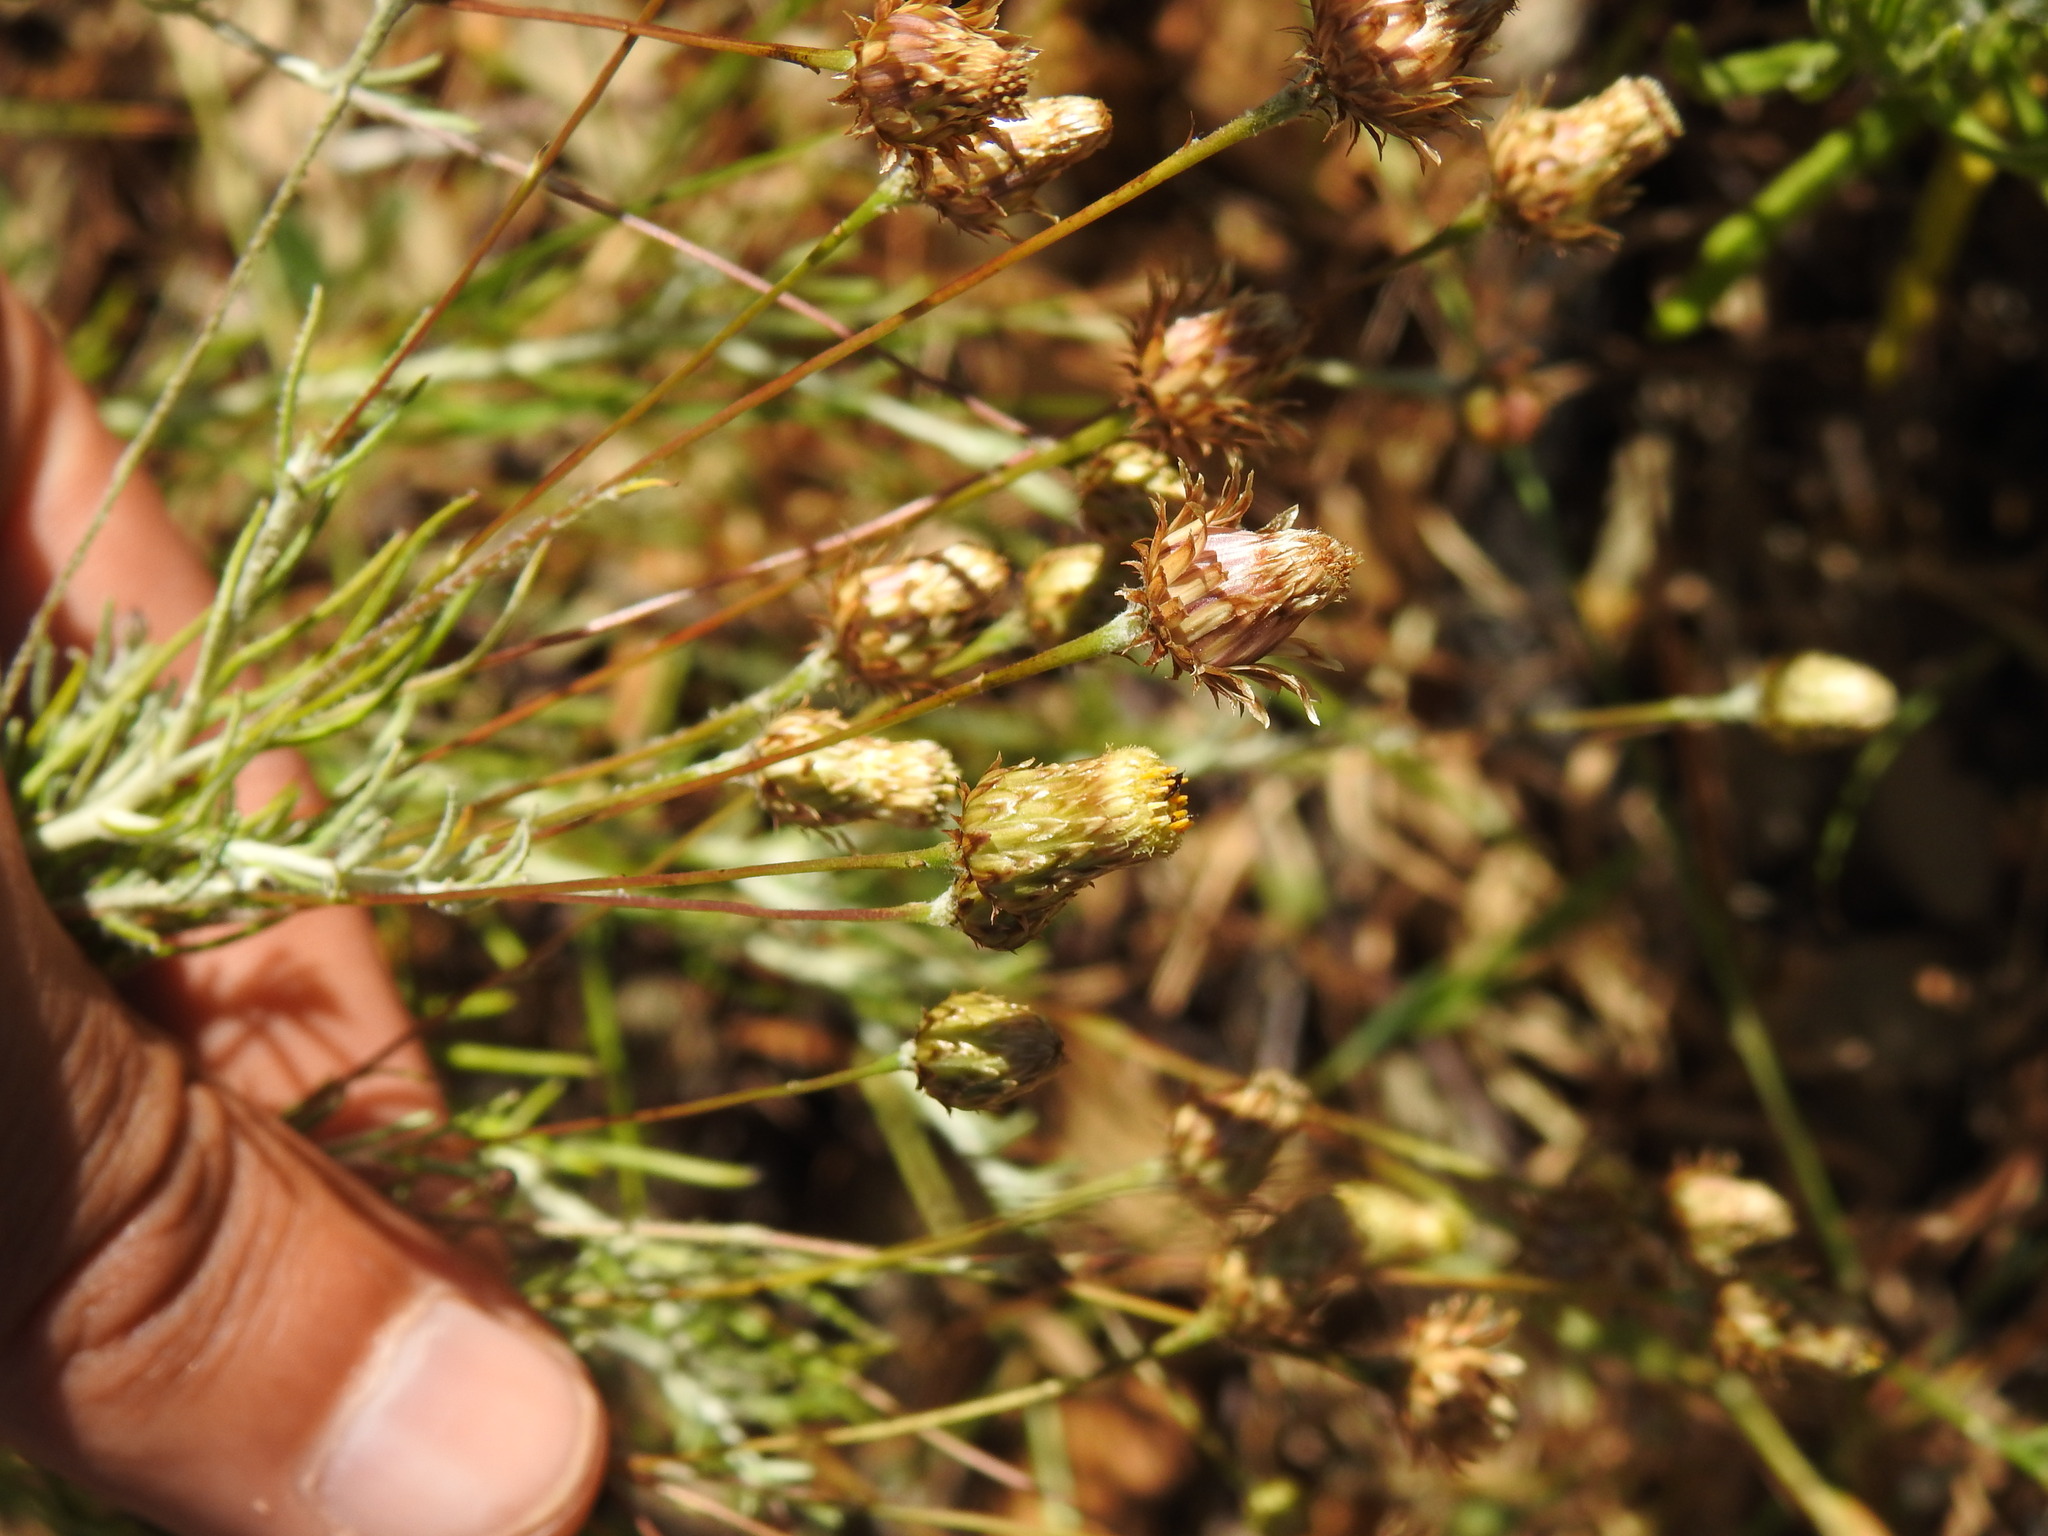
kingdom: Plantae
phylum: Tracheophyta
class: Magnoliopsida
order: Asterales
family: Asteraceae
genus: Phagnalon
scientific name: Phagnalon saxatile
